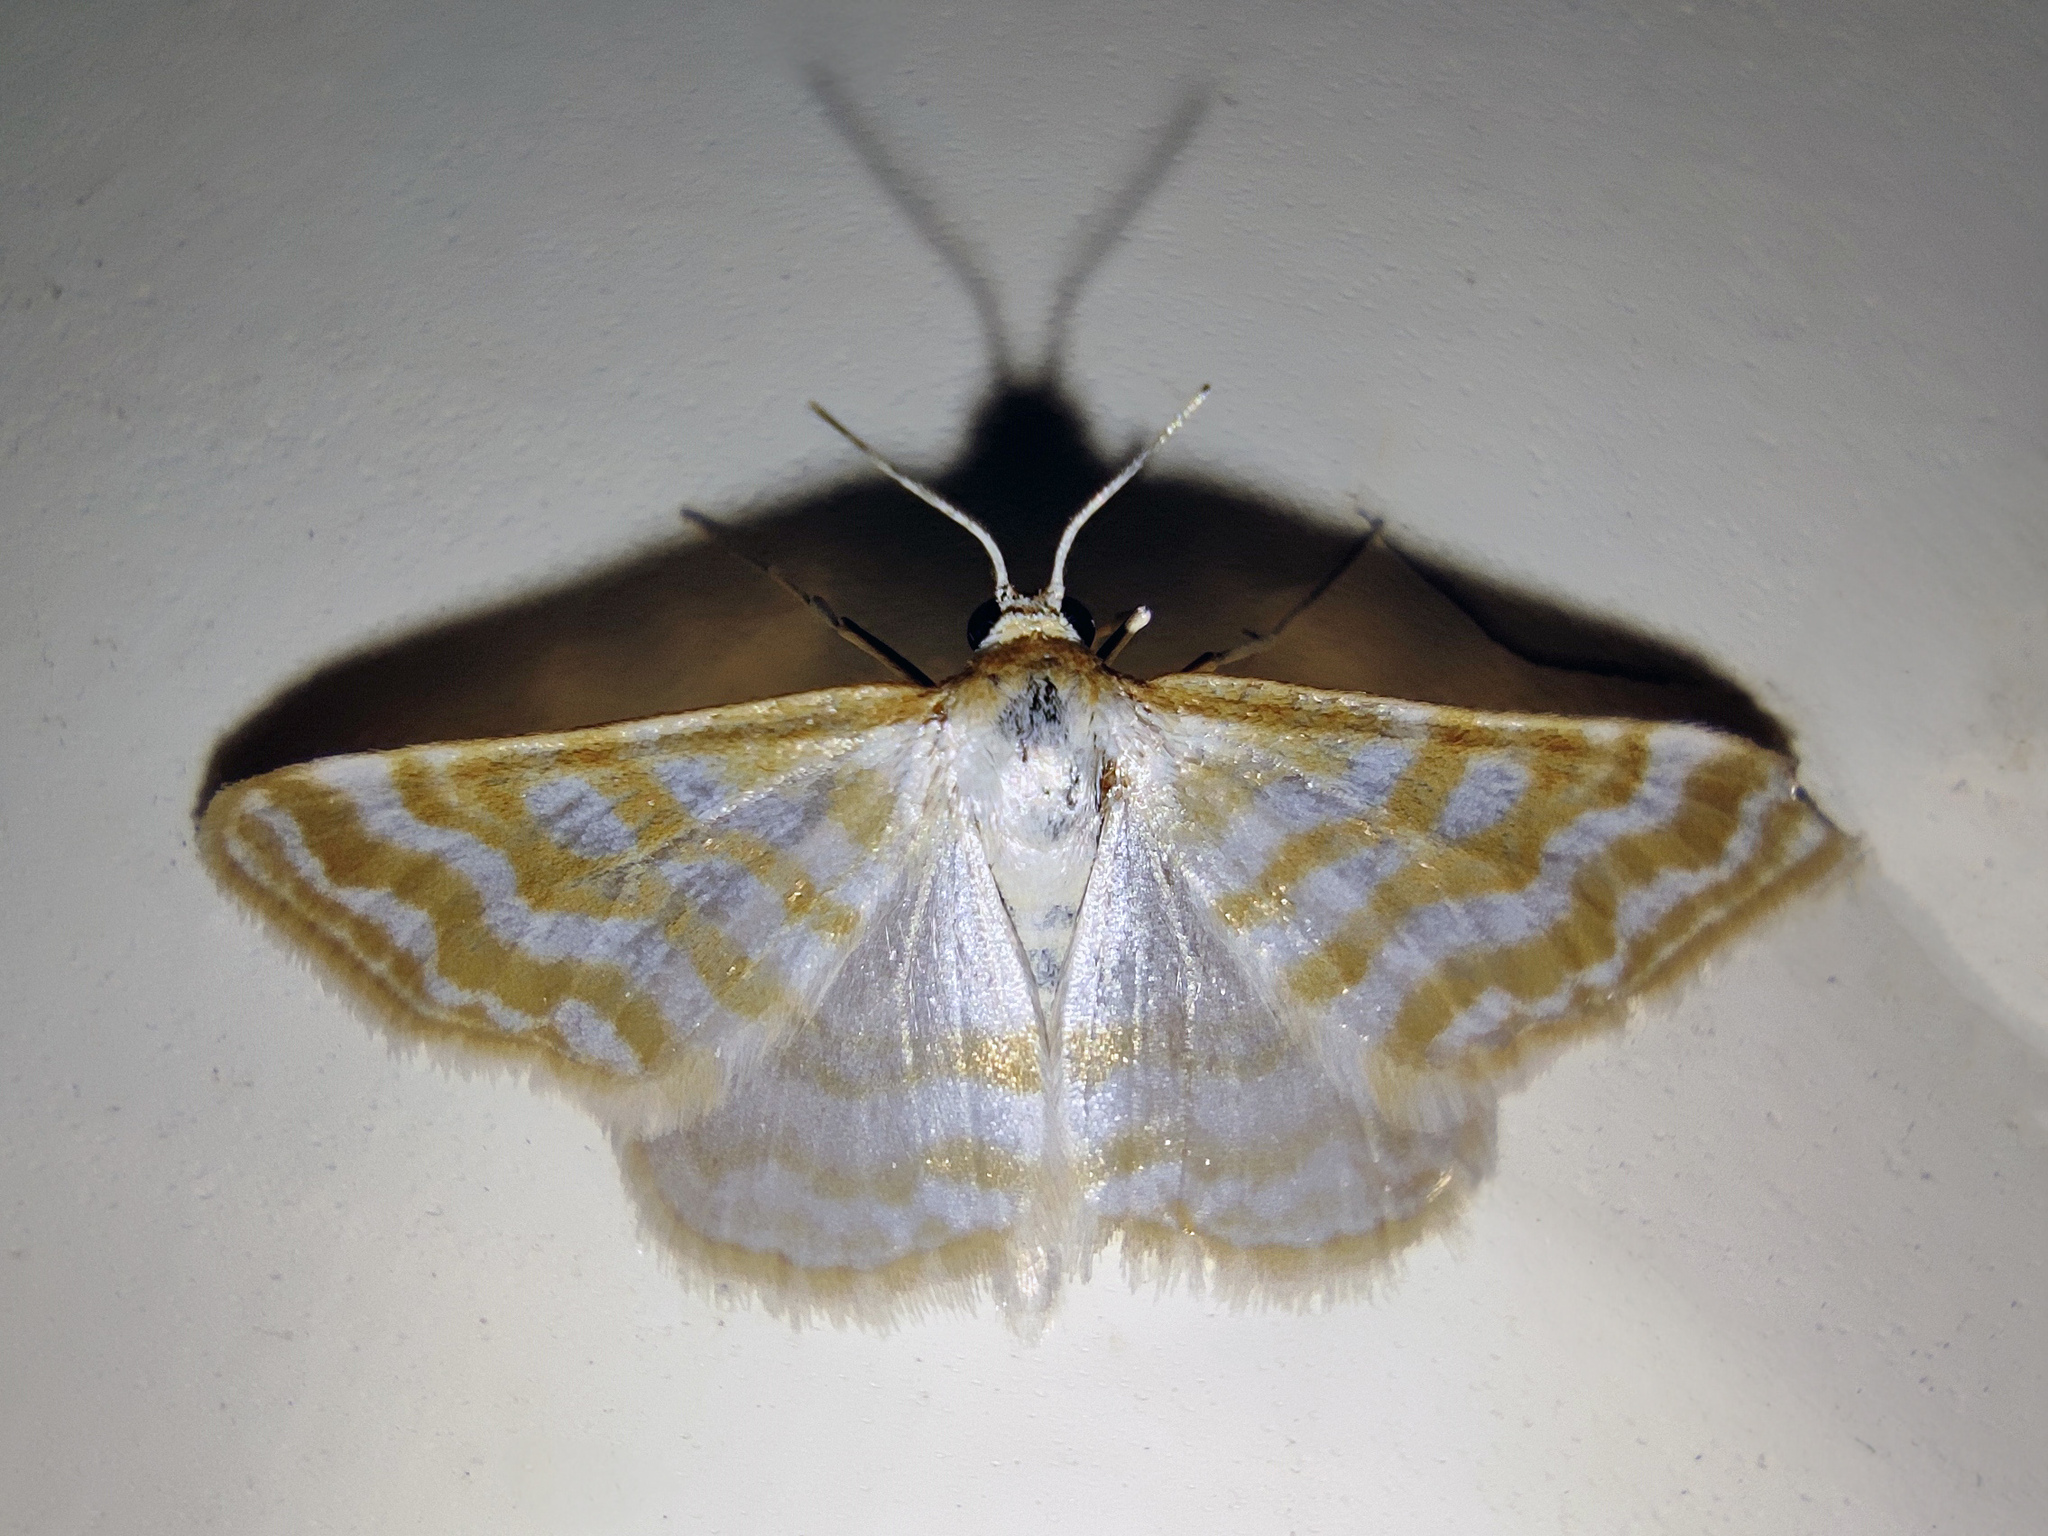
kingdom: Animalia
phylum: Arthropoda
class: Insecta
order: Lepidoptera
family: Geometridae
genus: Idaea
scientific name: Idaea sericeata
